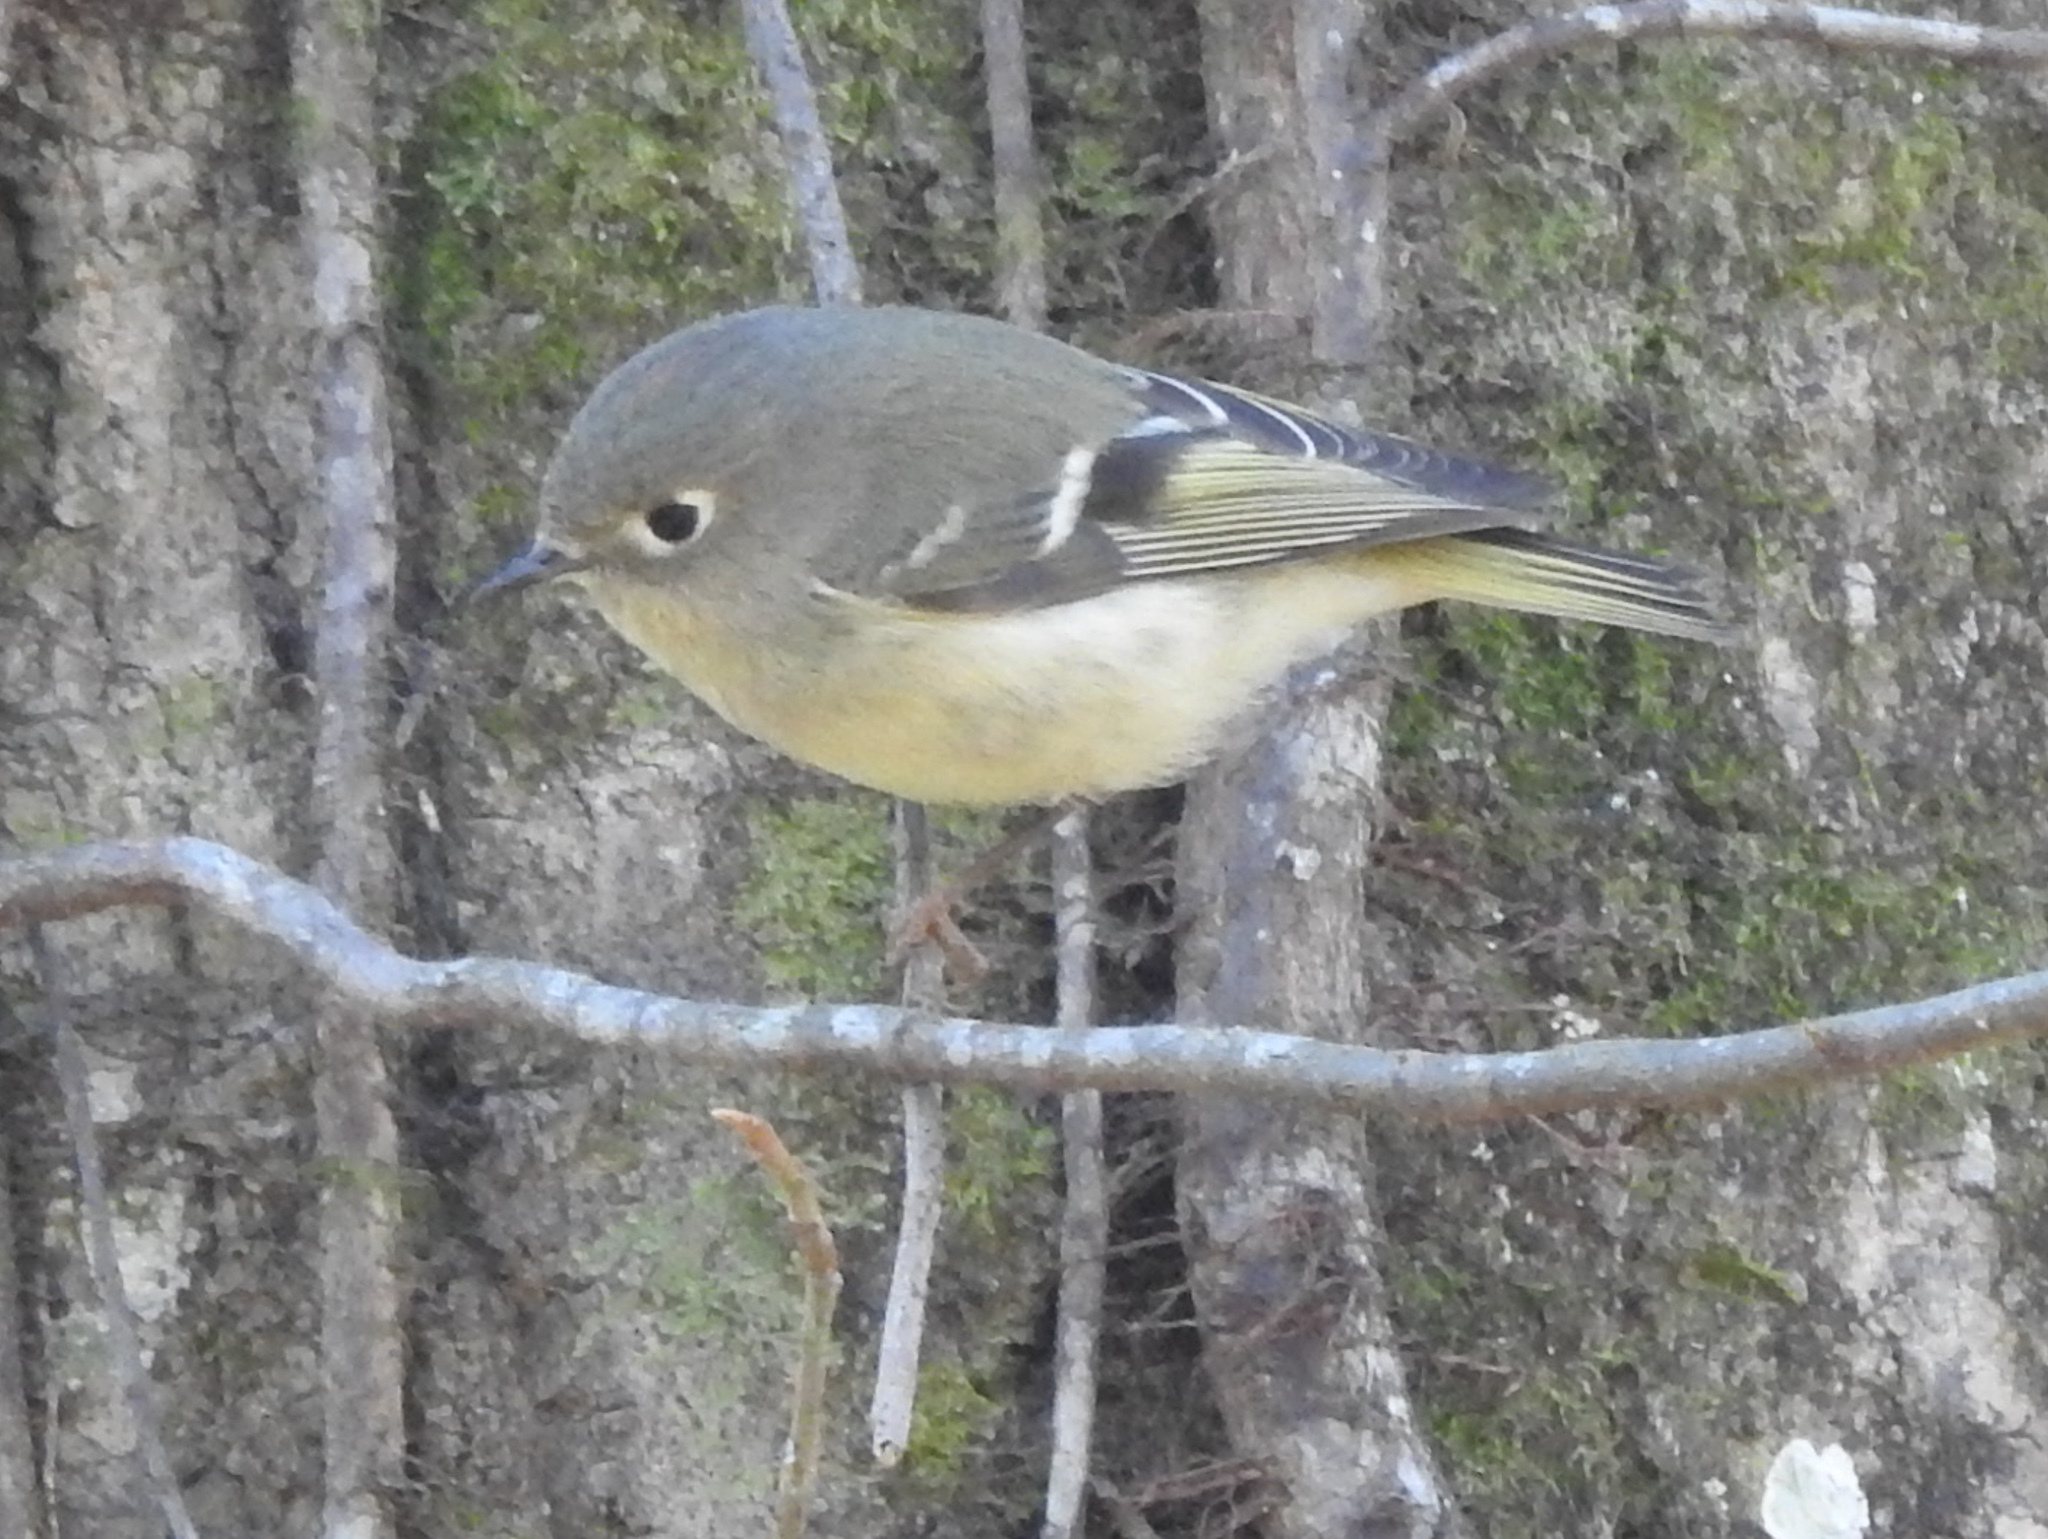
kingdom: Animalia
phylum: Chordata
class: Aves
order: Passeriformes
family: Regulidae
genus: Regulus
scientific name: Regulus calendula
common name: Ruby-crowned kinglet
